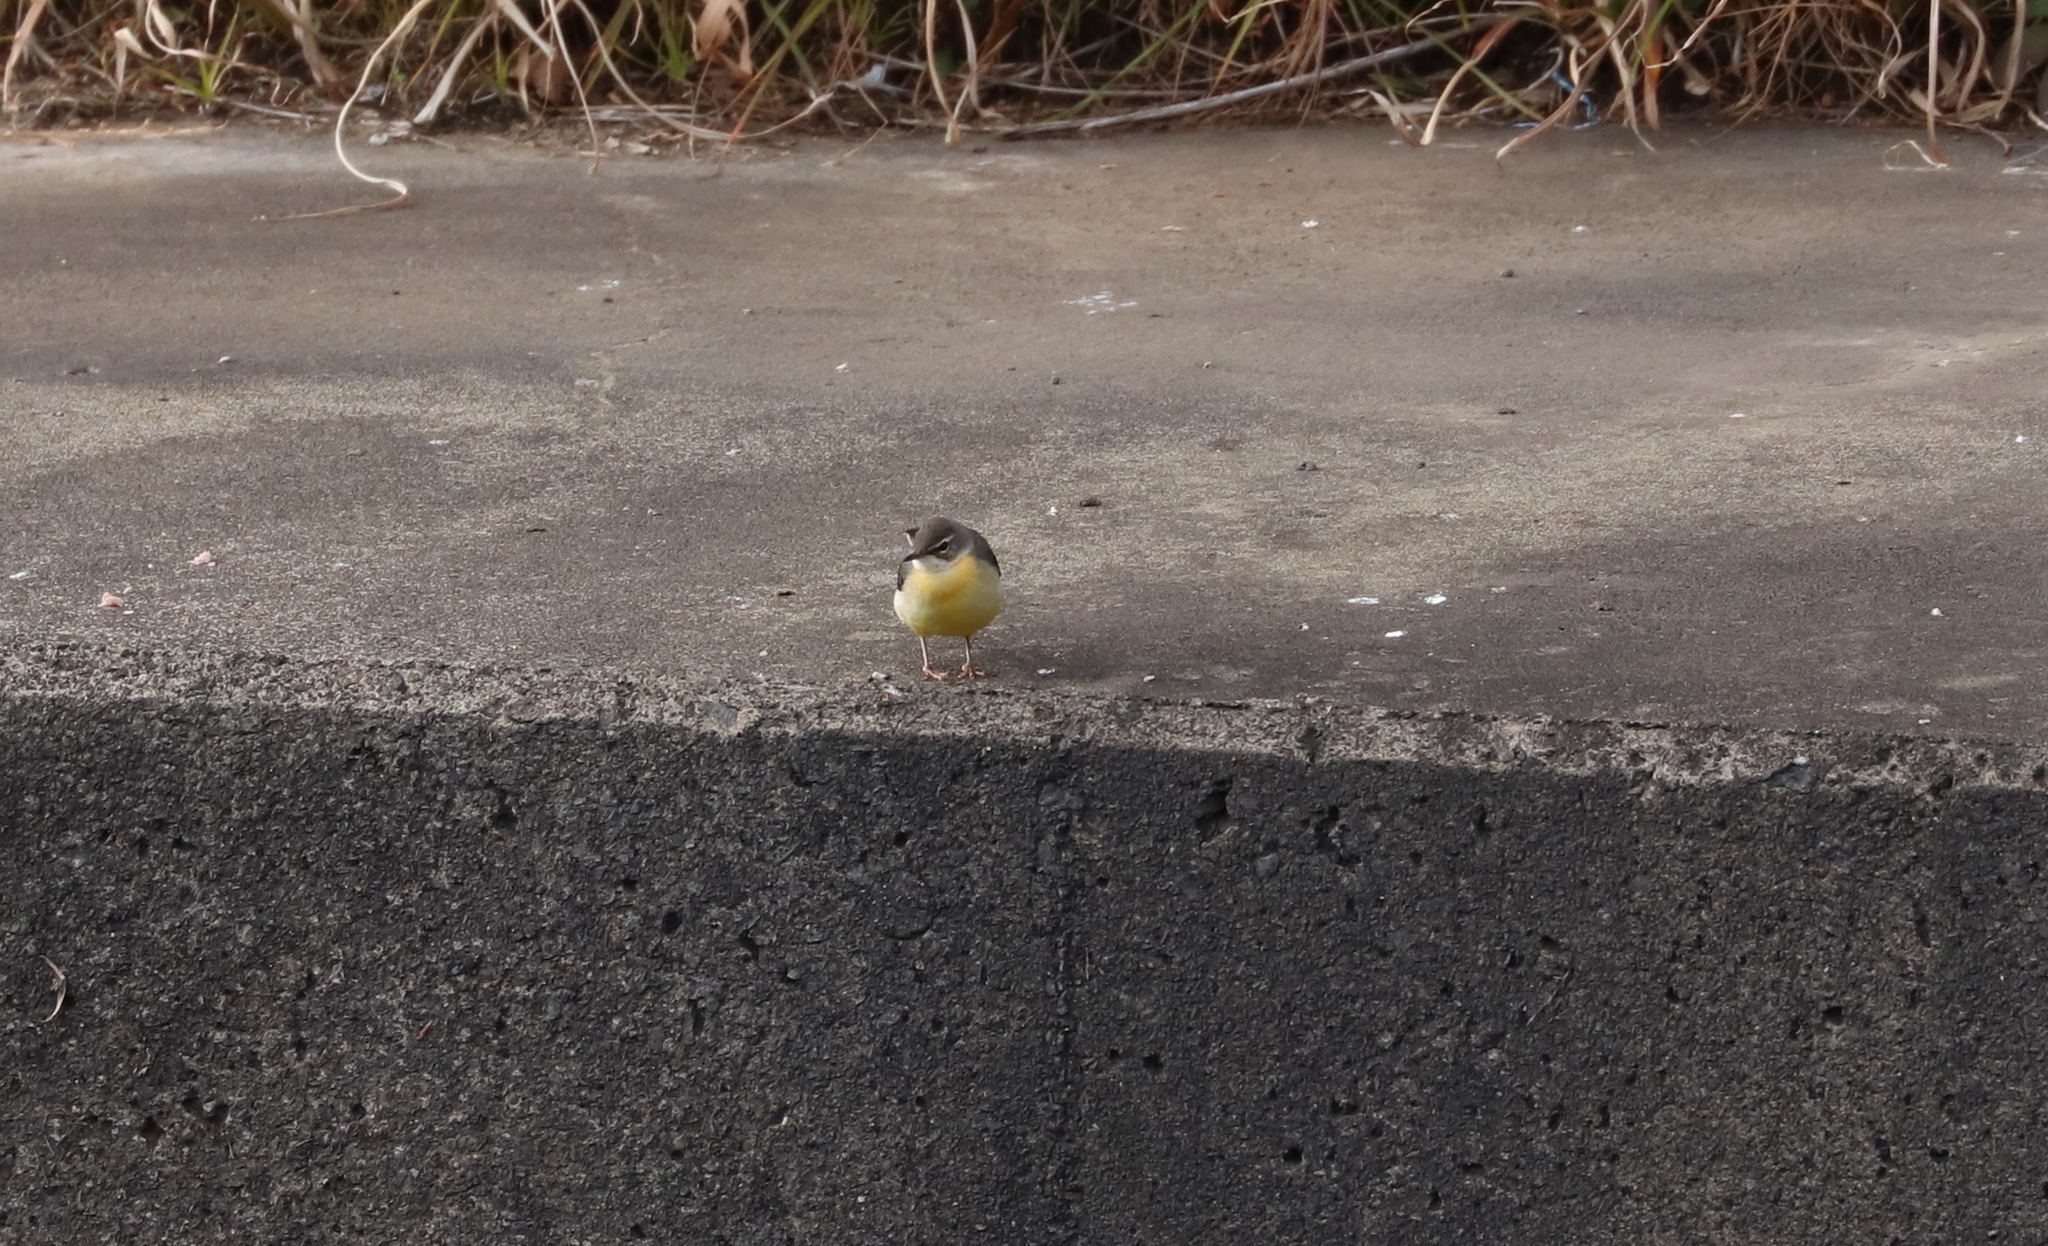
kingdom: Animalia
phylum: Chordata
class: Aves
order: Passeriformes
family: Motacillidae
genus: Motacilla
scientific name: Motacilla cinerea
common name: Grey wagtail
